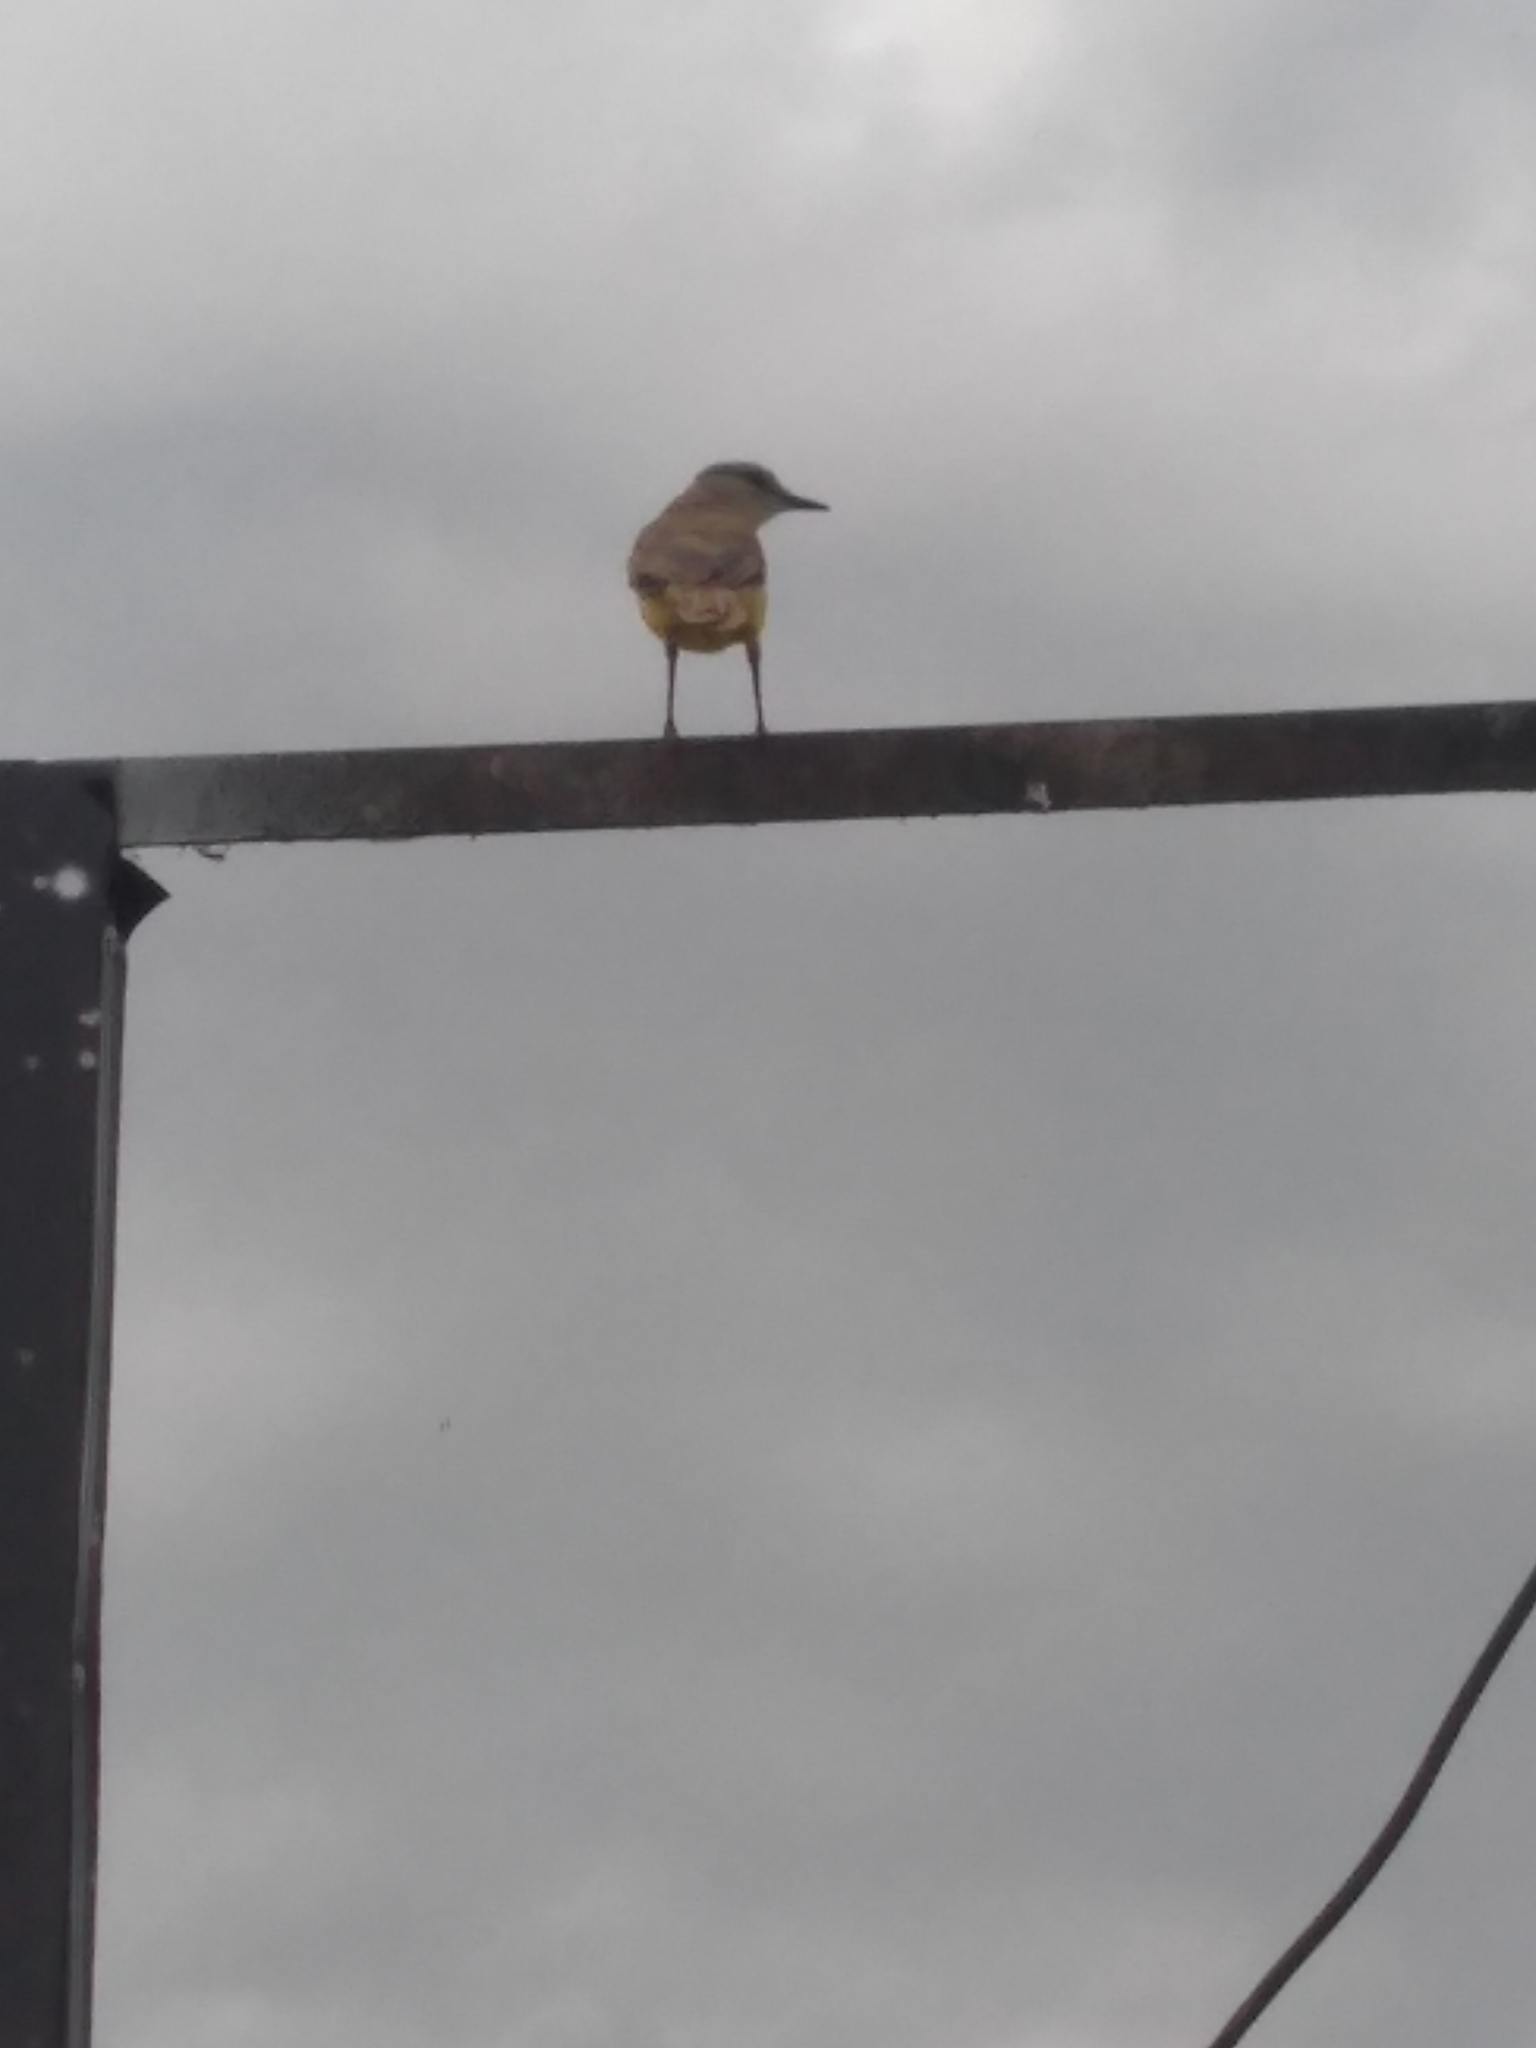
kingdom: Animalia
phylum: Chordata
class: Aves
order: Passeriformes
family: Tyrannidae
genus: Machetornis
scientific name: Machetornis rixosa
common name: Cattle tyrant
